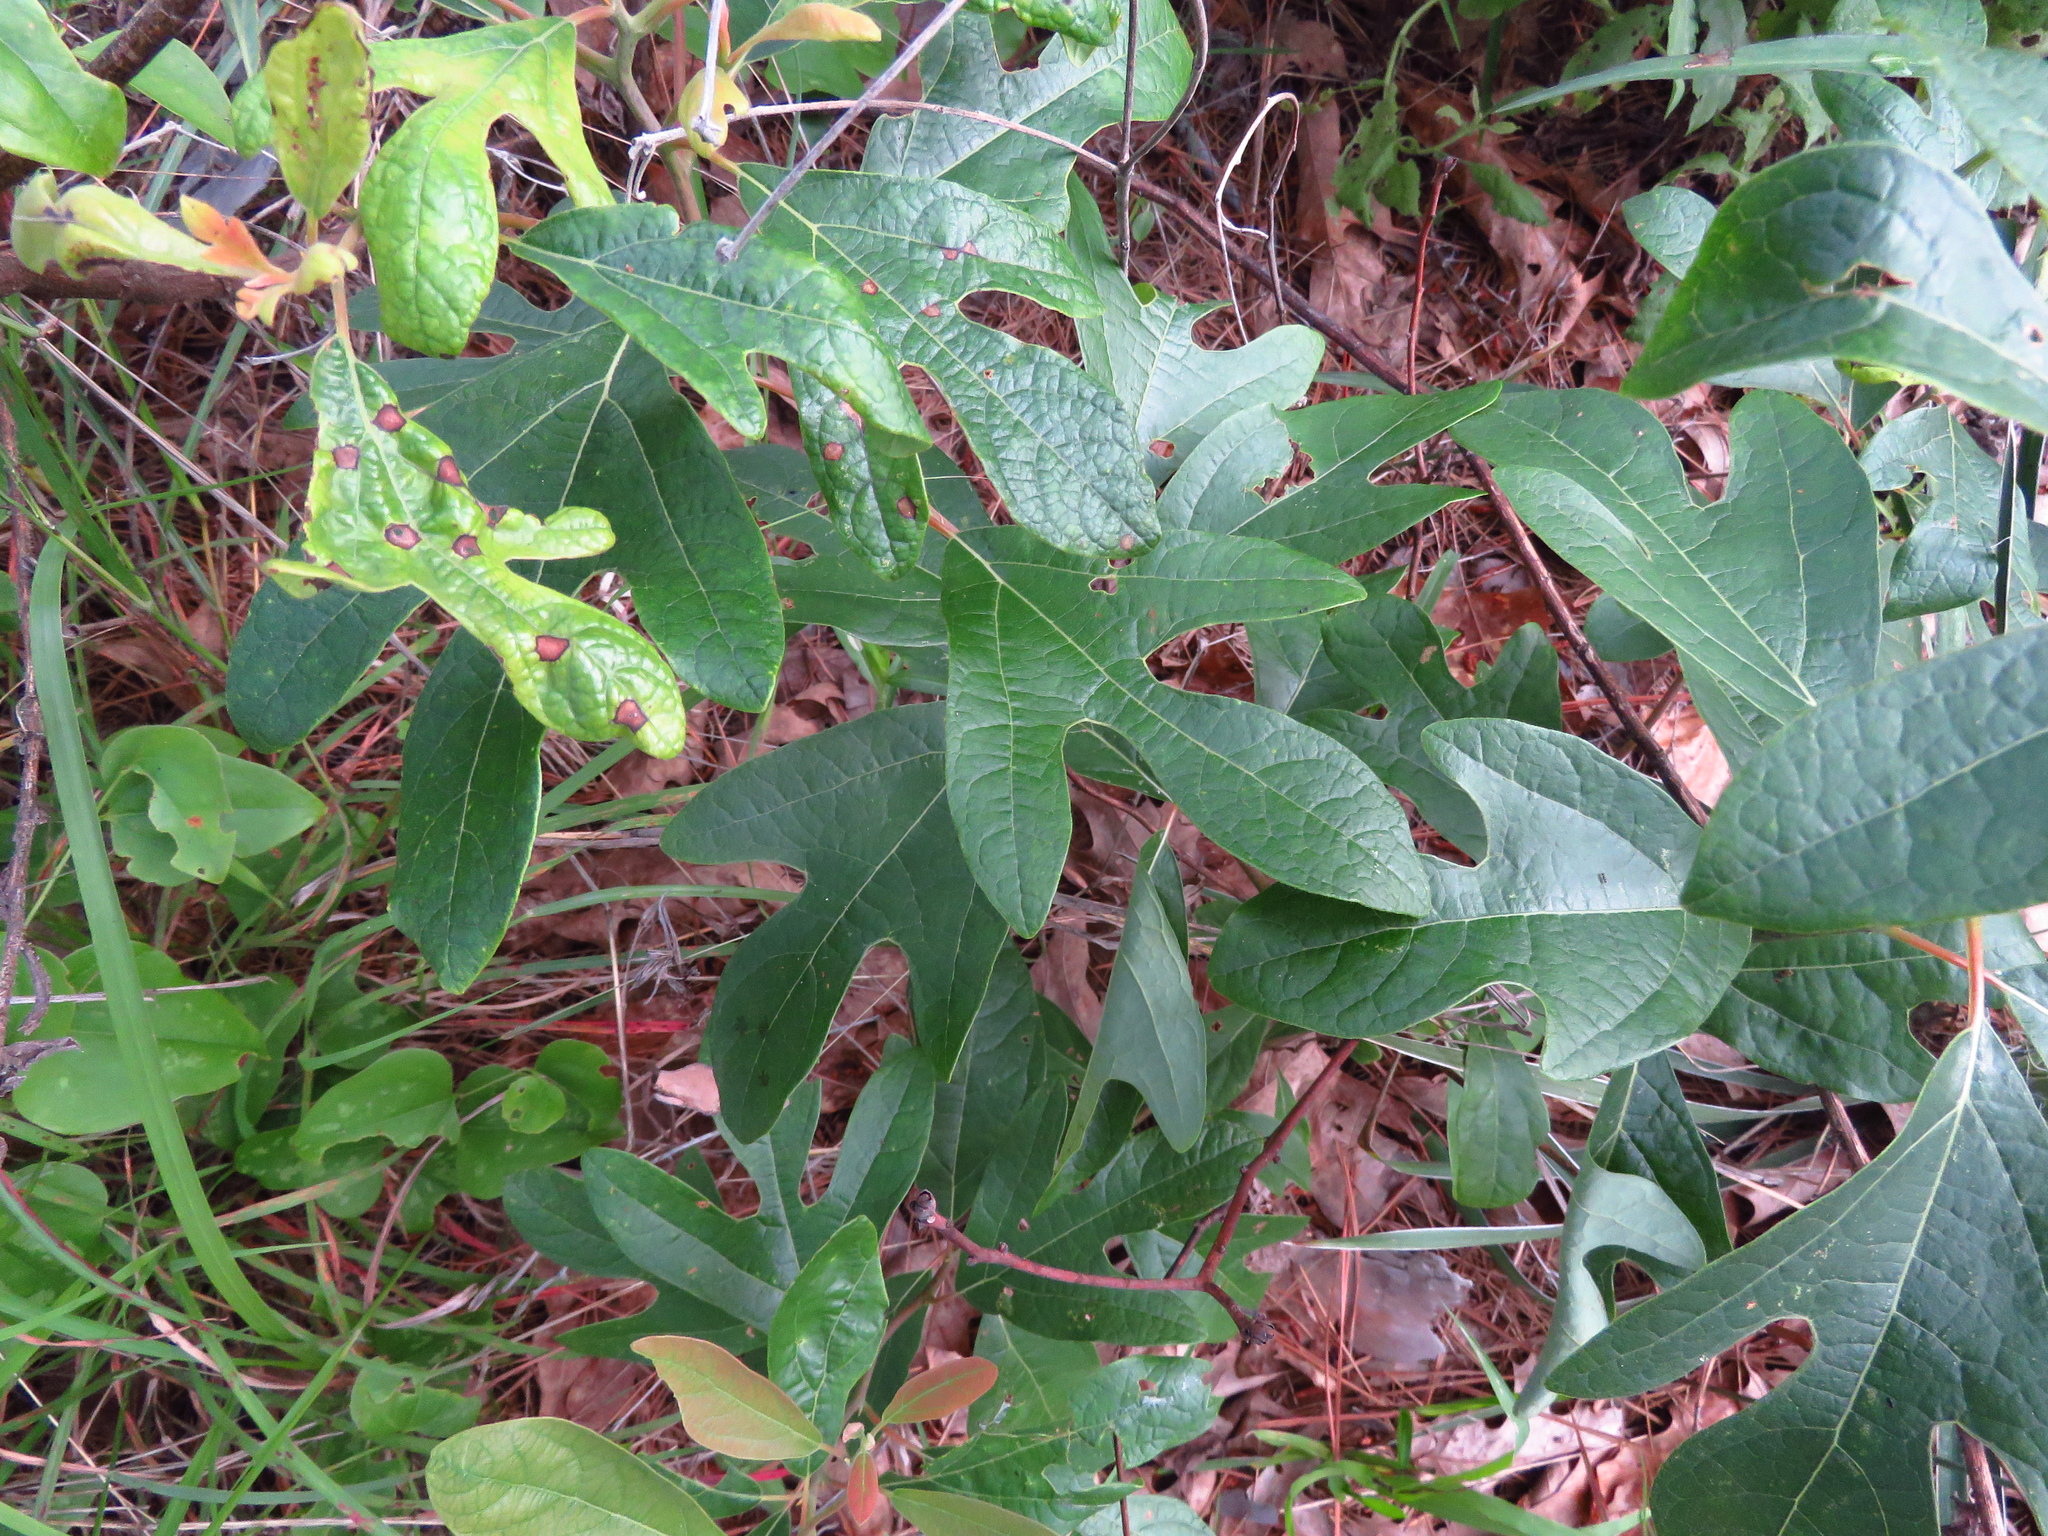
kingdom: Plantae
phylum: Tracheophyta
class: Magnoliopsida
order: Laurales
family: Lauraceae
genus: Sassafras
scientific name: Sassafras albidum
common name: Sassafras
